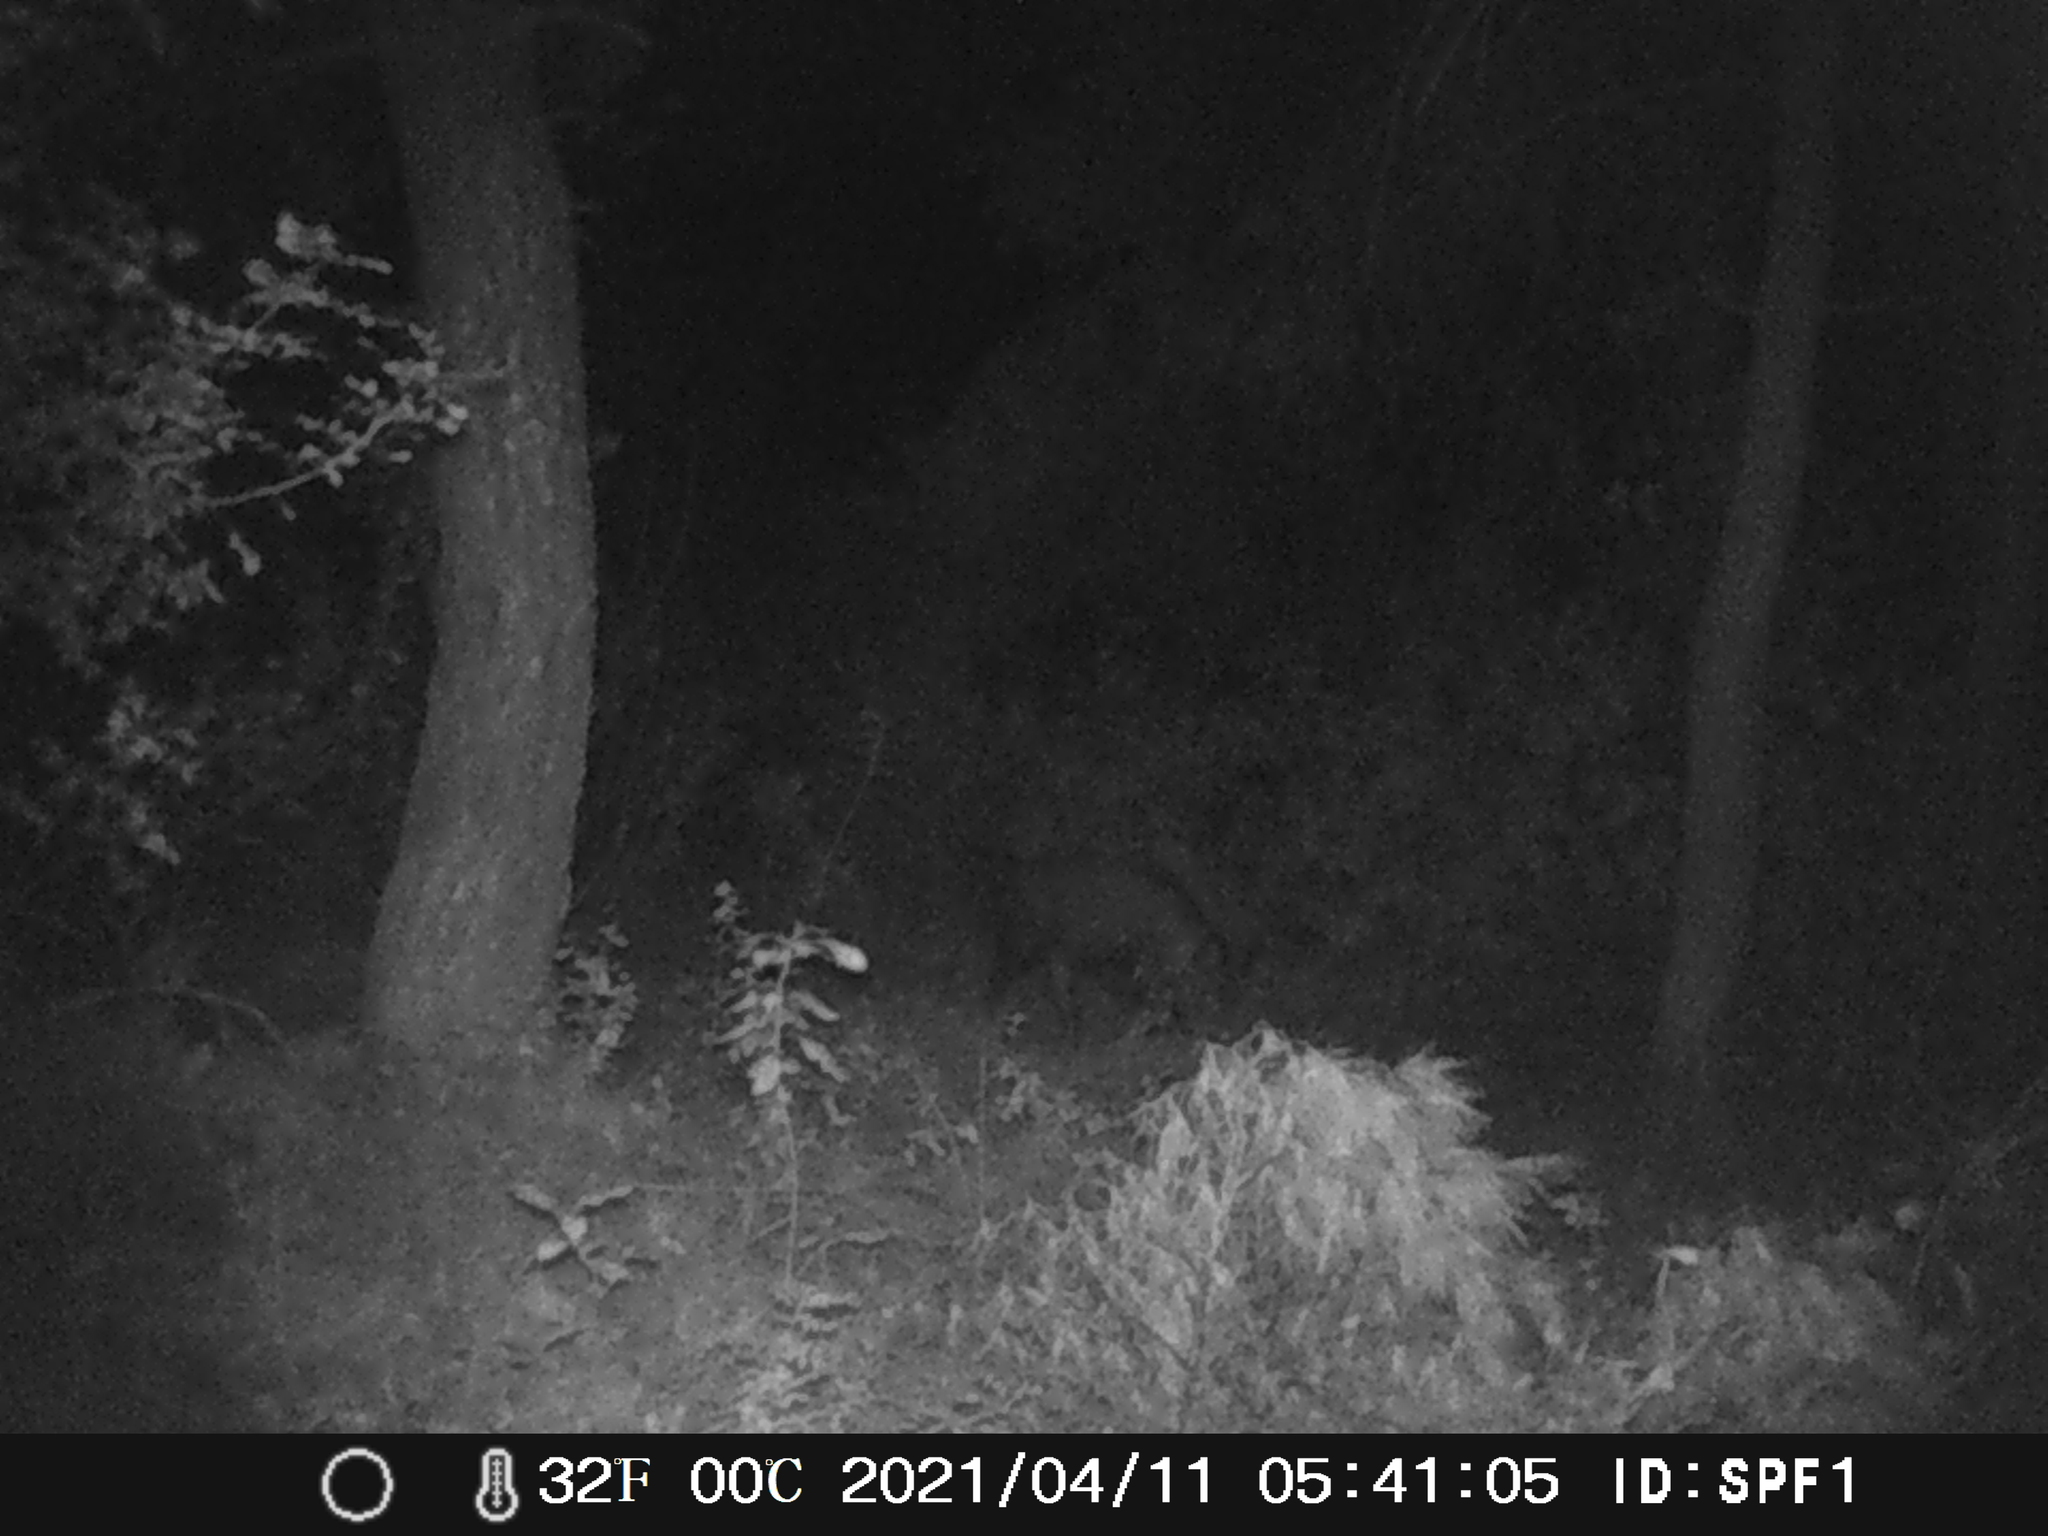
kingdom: Animalia
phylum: Chordata
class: Mammalia
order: Artiodactyla
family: Suidae
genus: Sus
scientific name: Sus scrofa
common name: Wild boar
